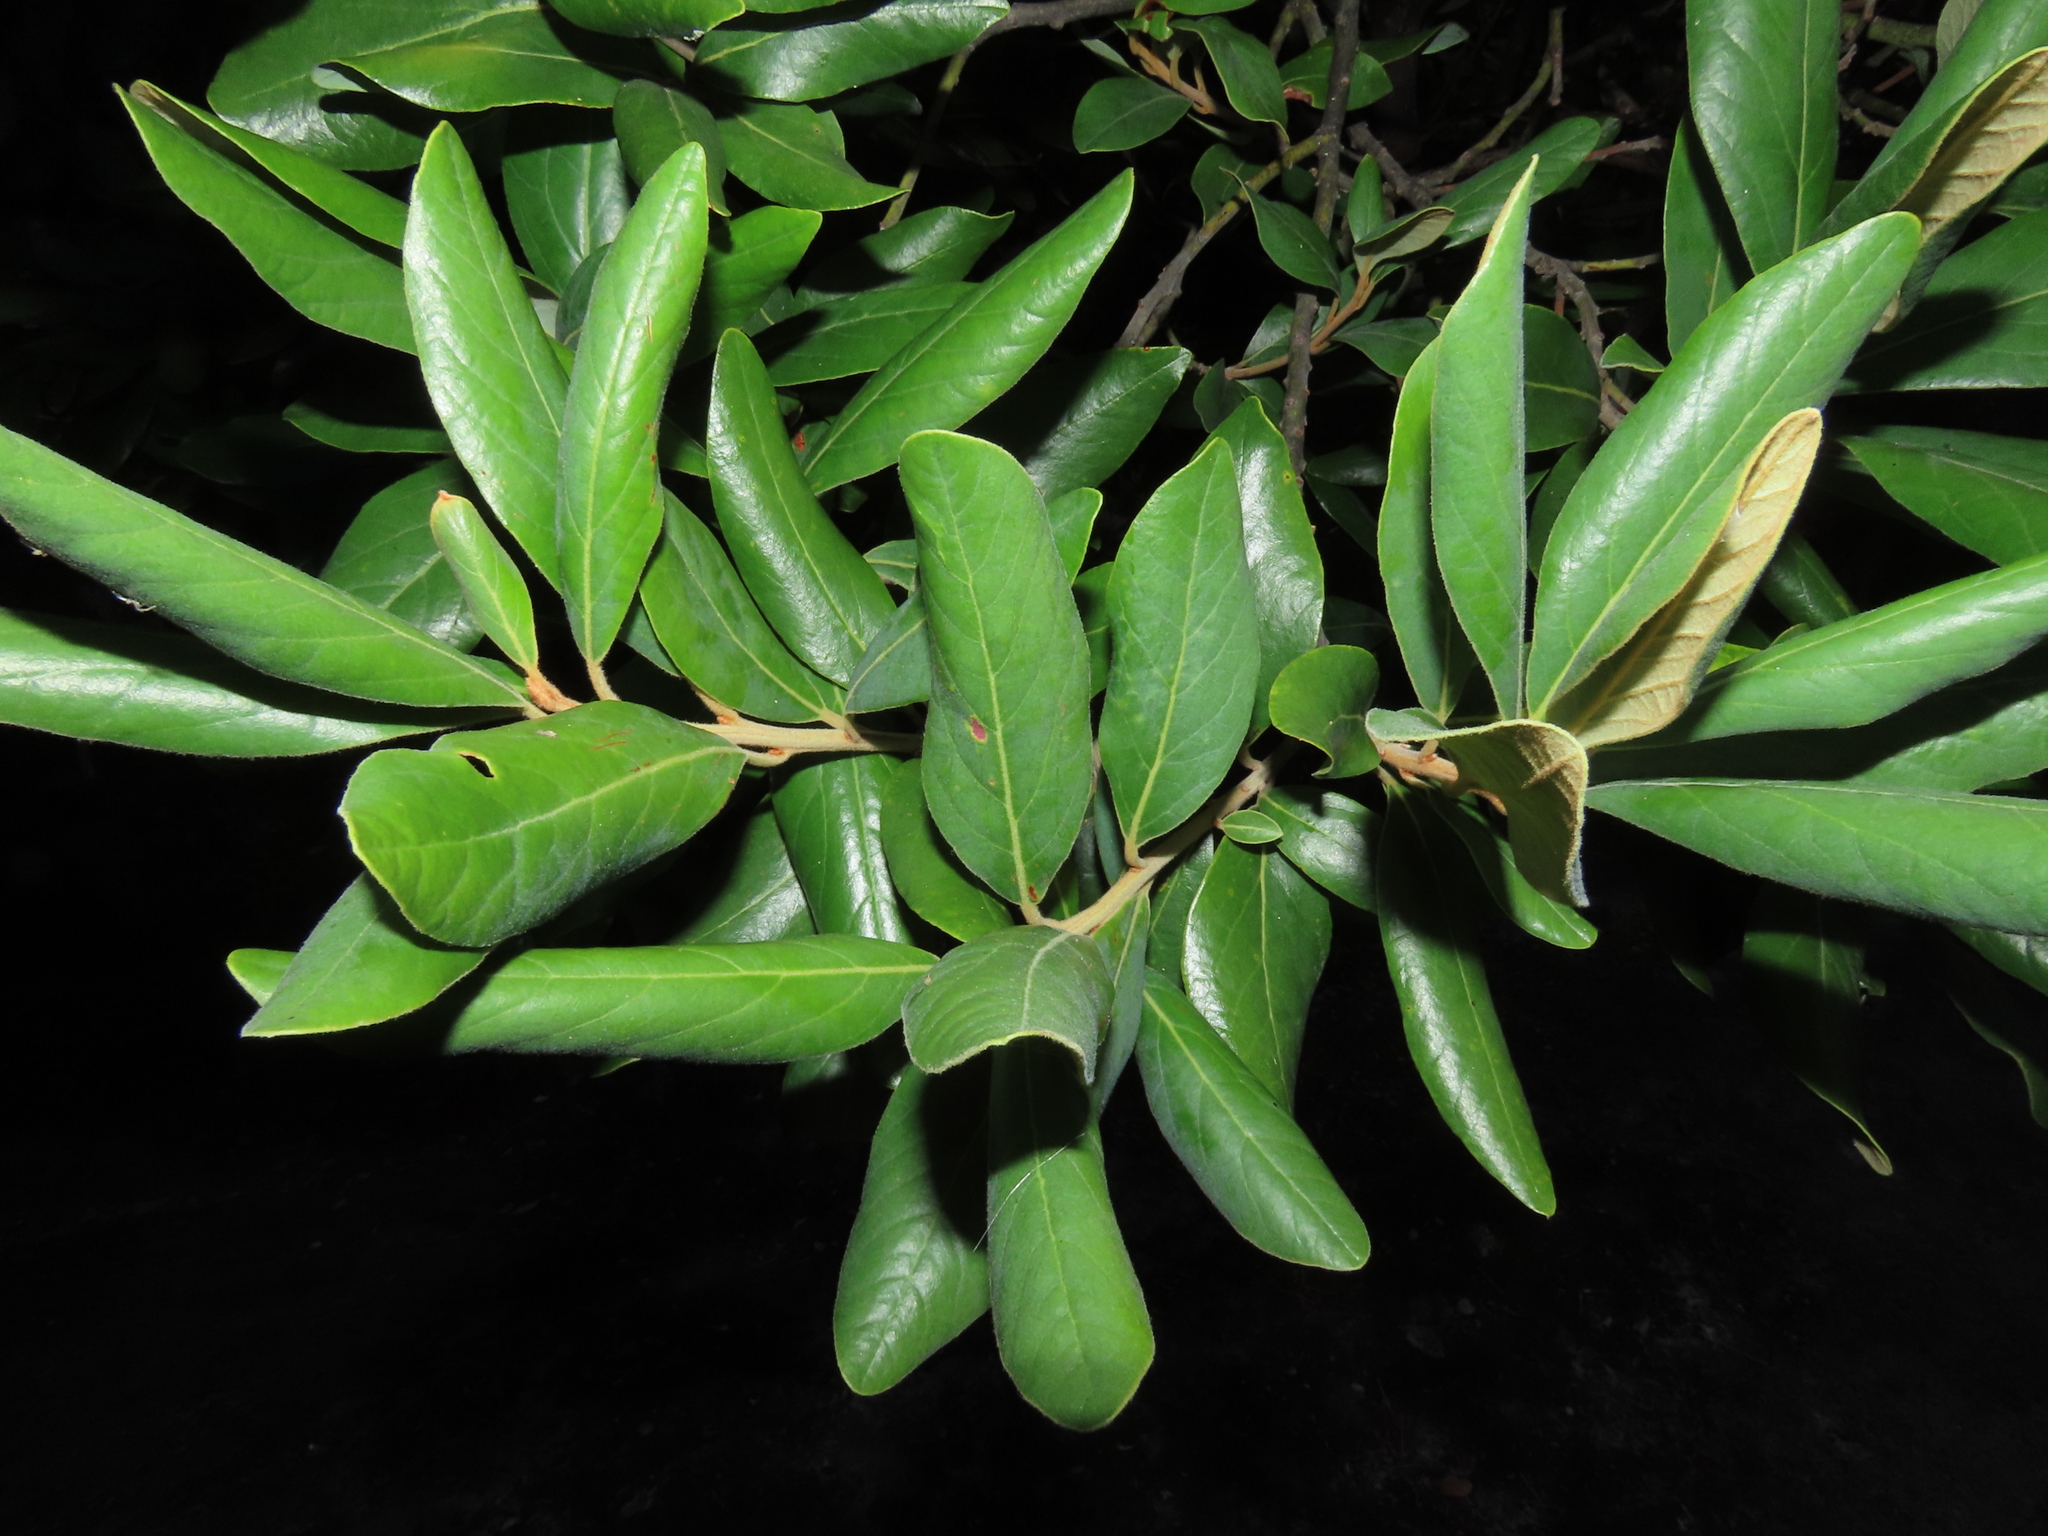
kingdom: Plantae
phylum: Tracheophyta
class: Magnoliopsida
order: Laurales
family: Lauraceae
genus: Persea
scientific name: Persea lingue
